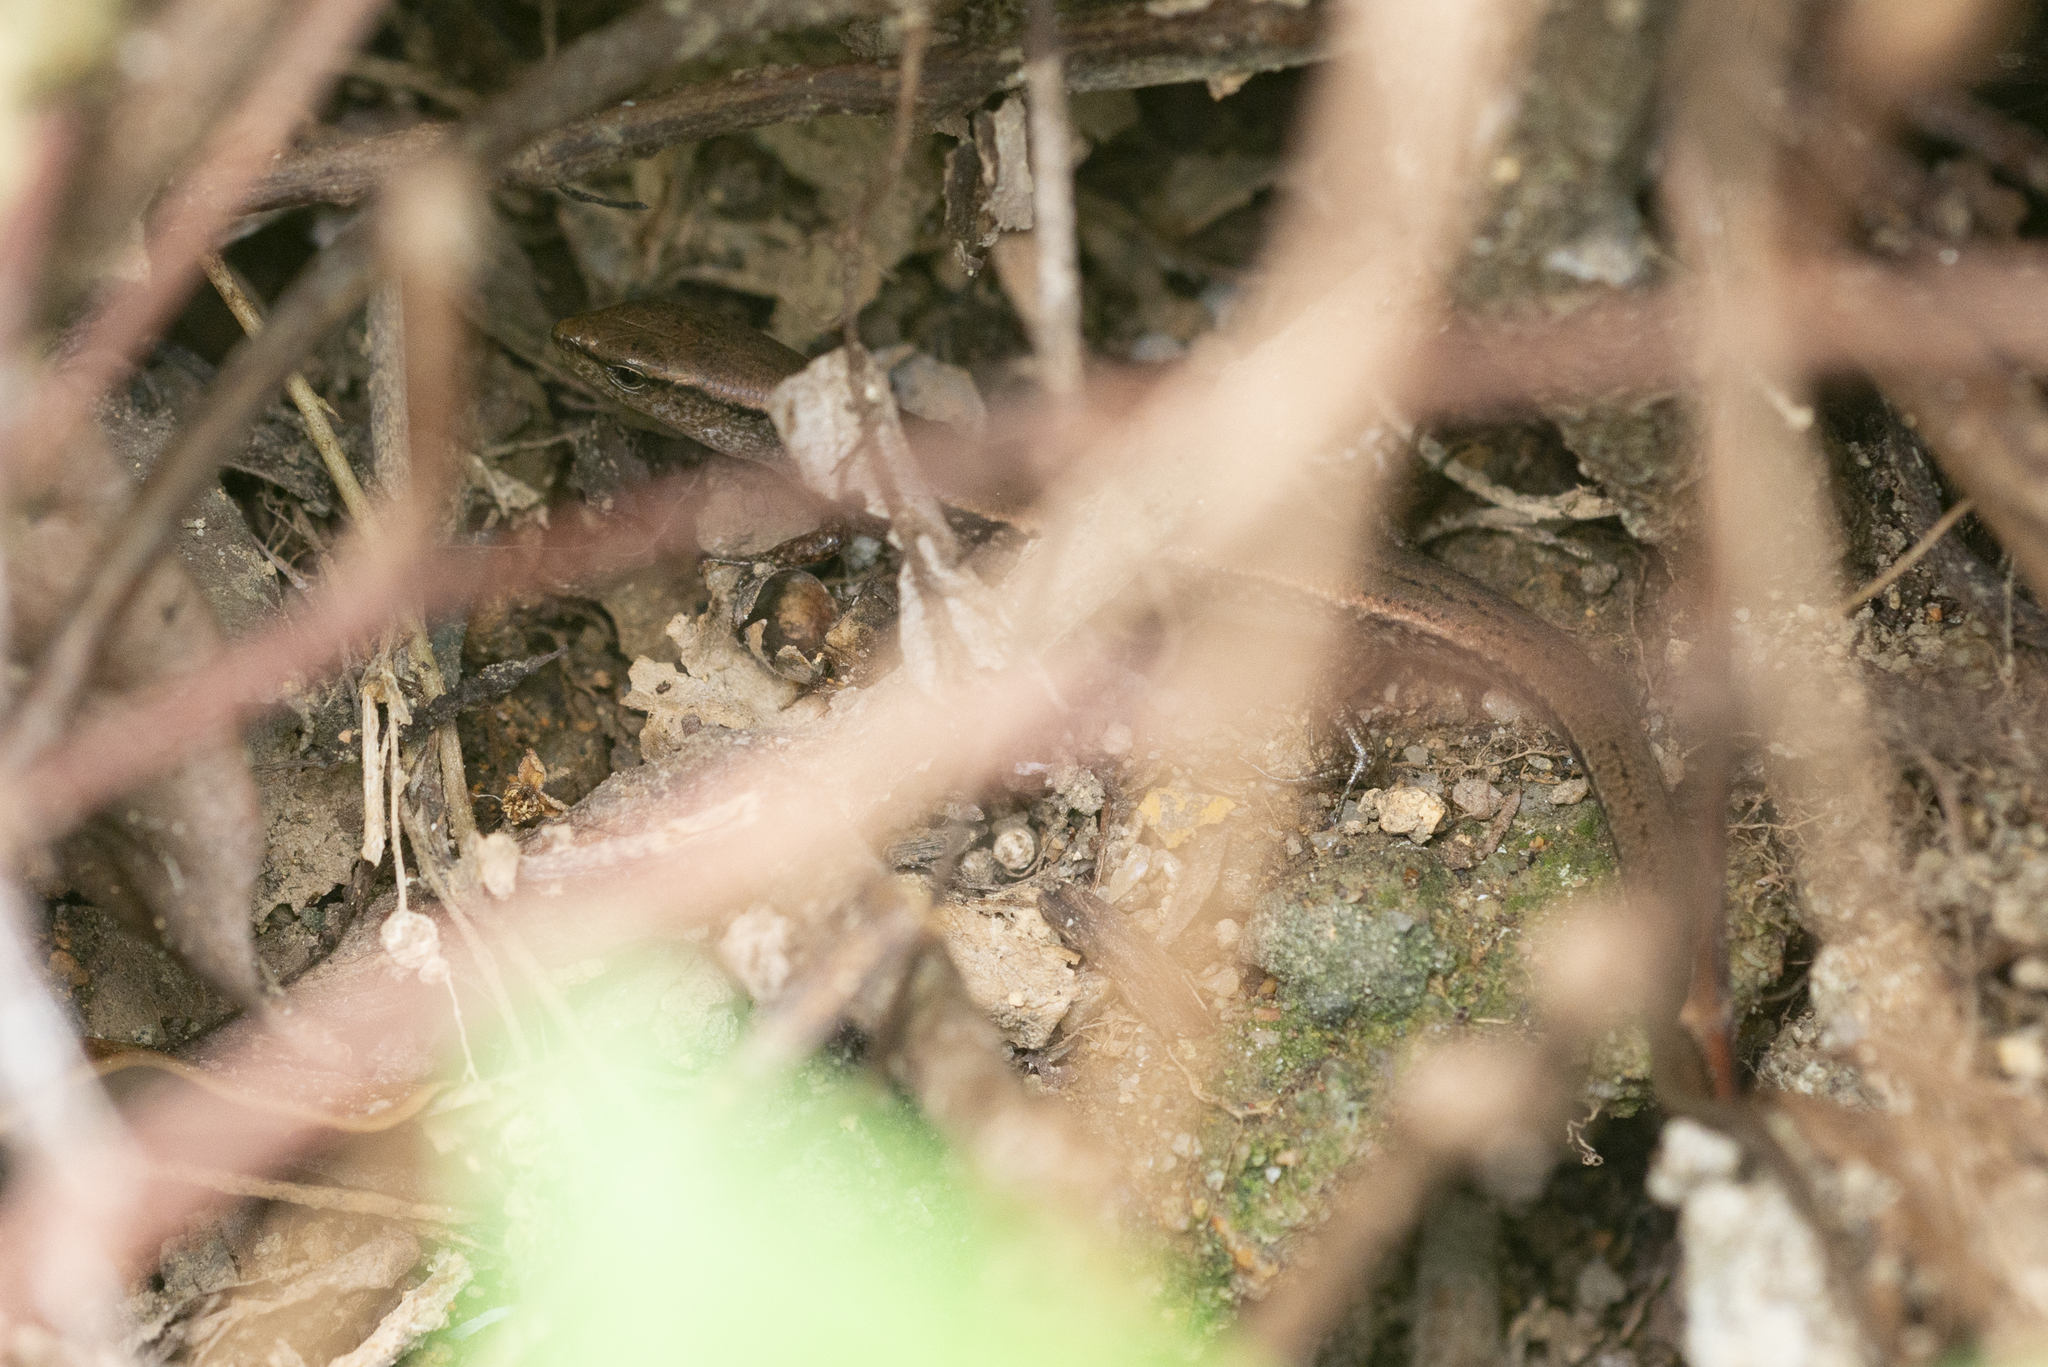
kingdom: Animalia
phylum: Chordata
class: Squamata
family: Scincidae
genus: Scincella
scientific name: Scincella reevesii
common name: Reeves’ smooth gecko
